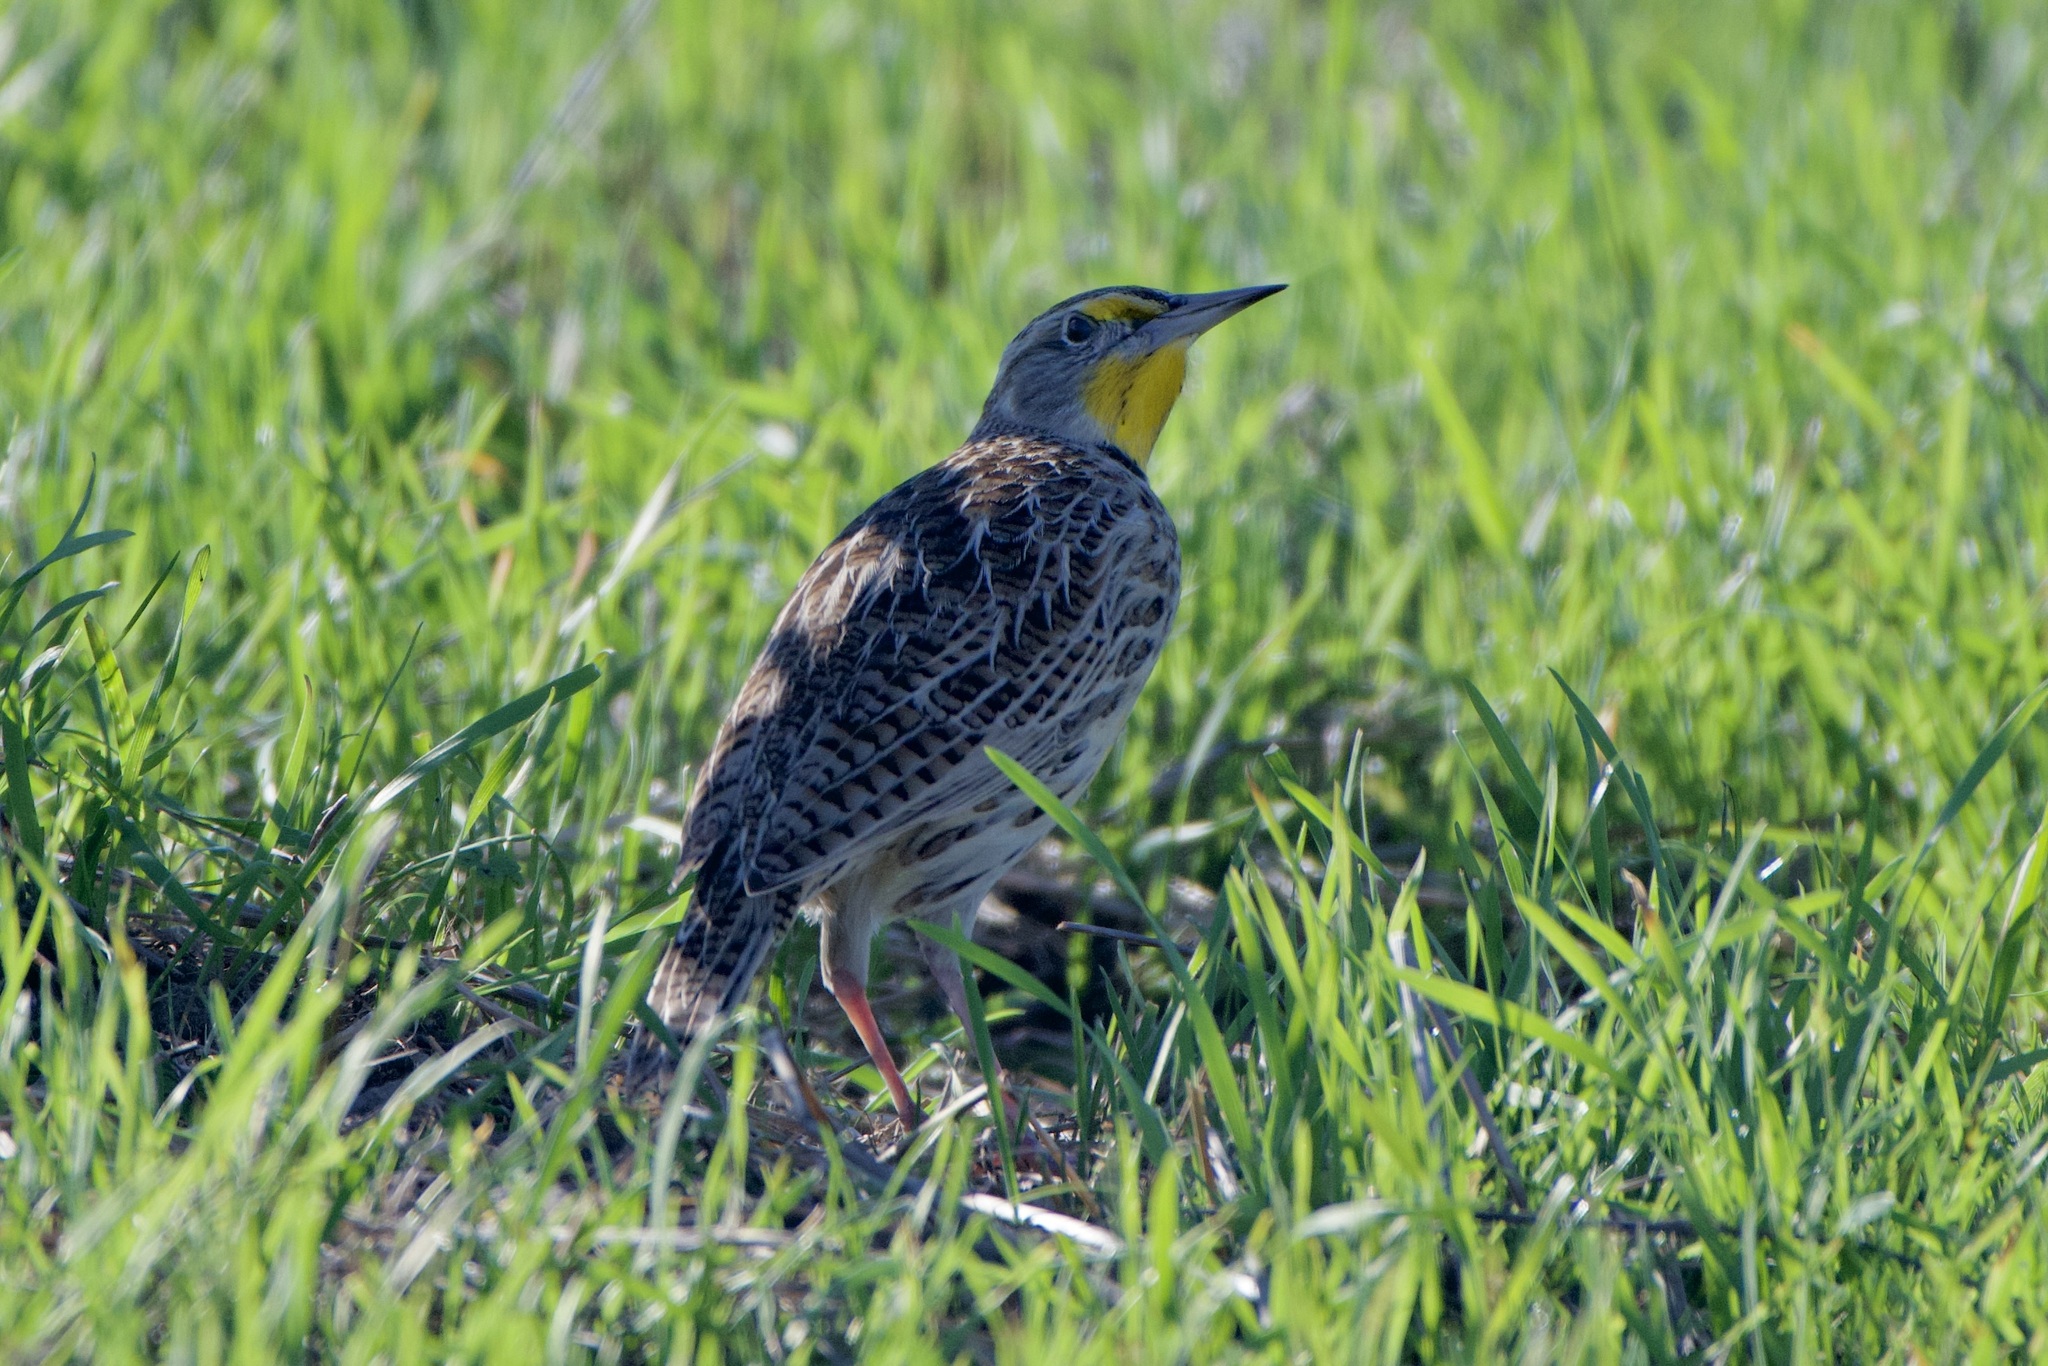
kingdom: Animalia
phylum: Chordata
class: Aves
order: Passeriformes
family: Icteridae
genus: Sturnella
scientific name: Sturnella neglecta
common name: Western meadowlark
